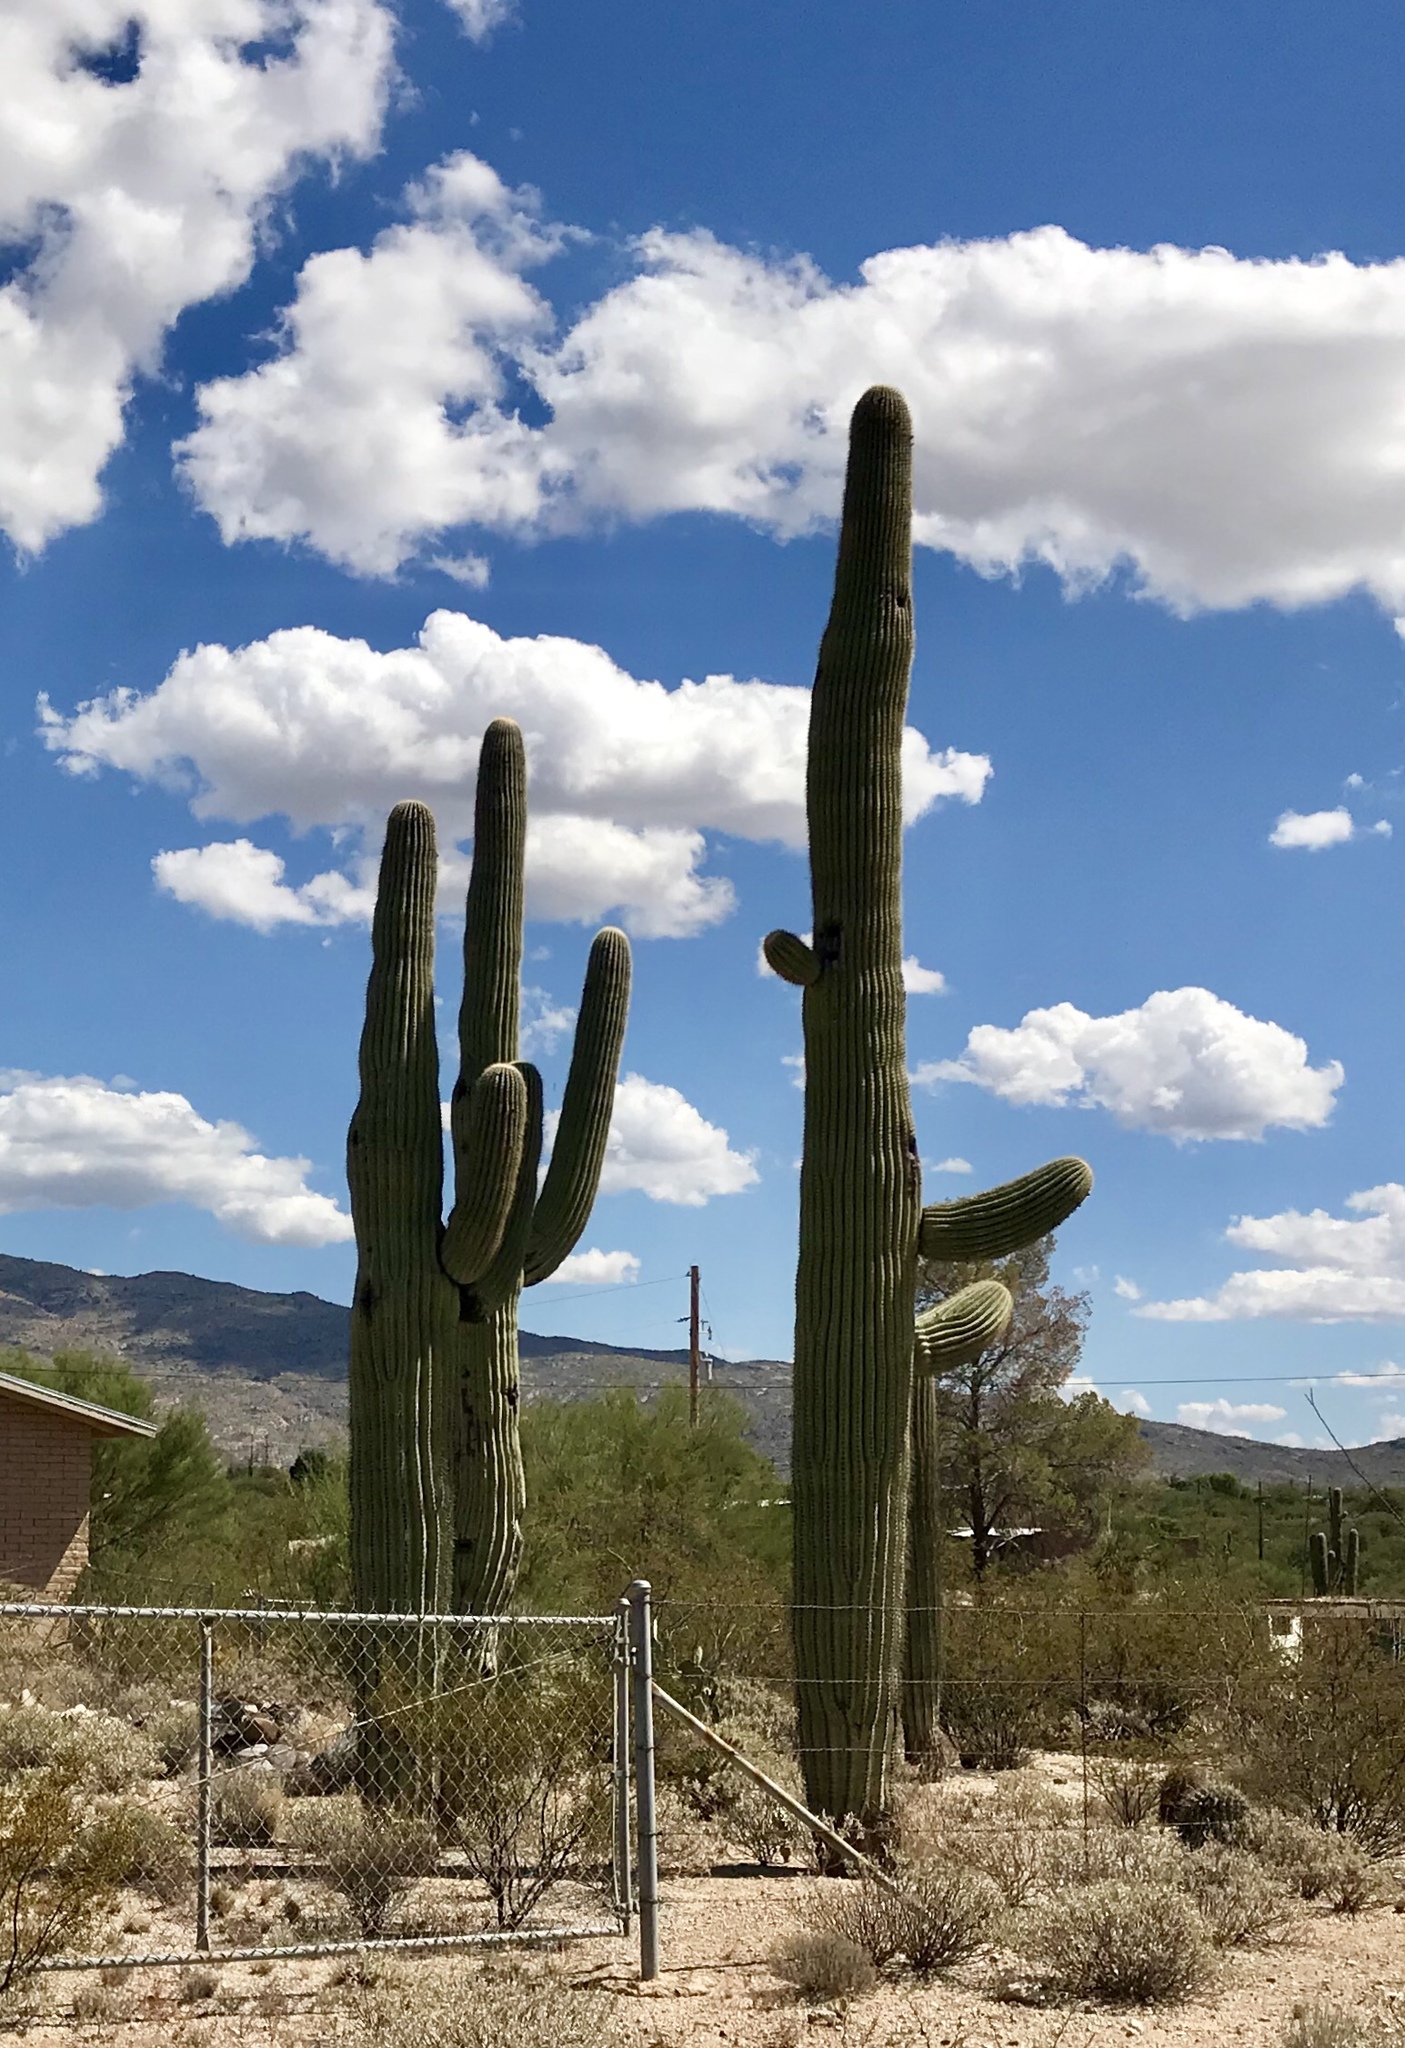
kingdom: Plantae
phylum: Tracheophyta
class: Magnoliopsida
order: Caryophyllales
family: Cactaceae
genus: Carnegiea
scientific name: Carnegiea gigantea
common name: Saguaro
